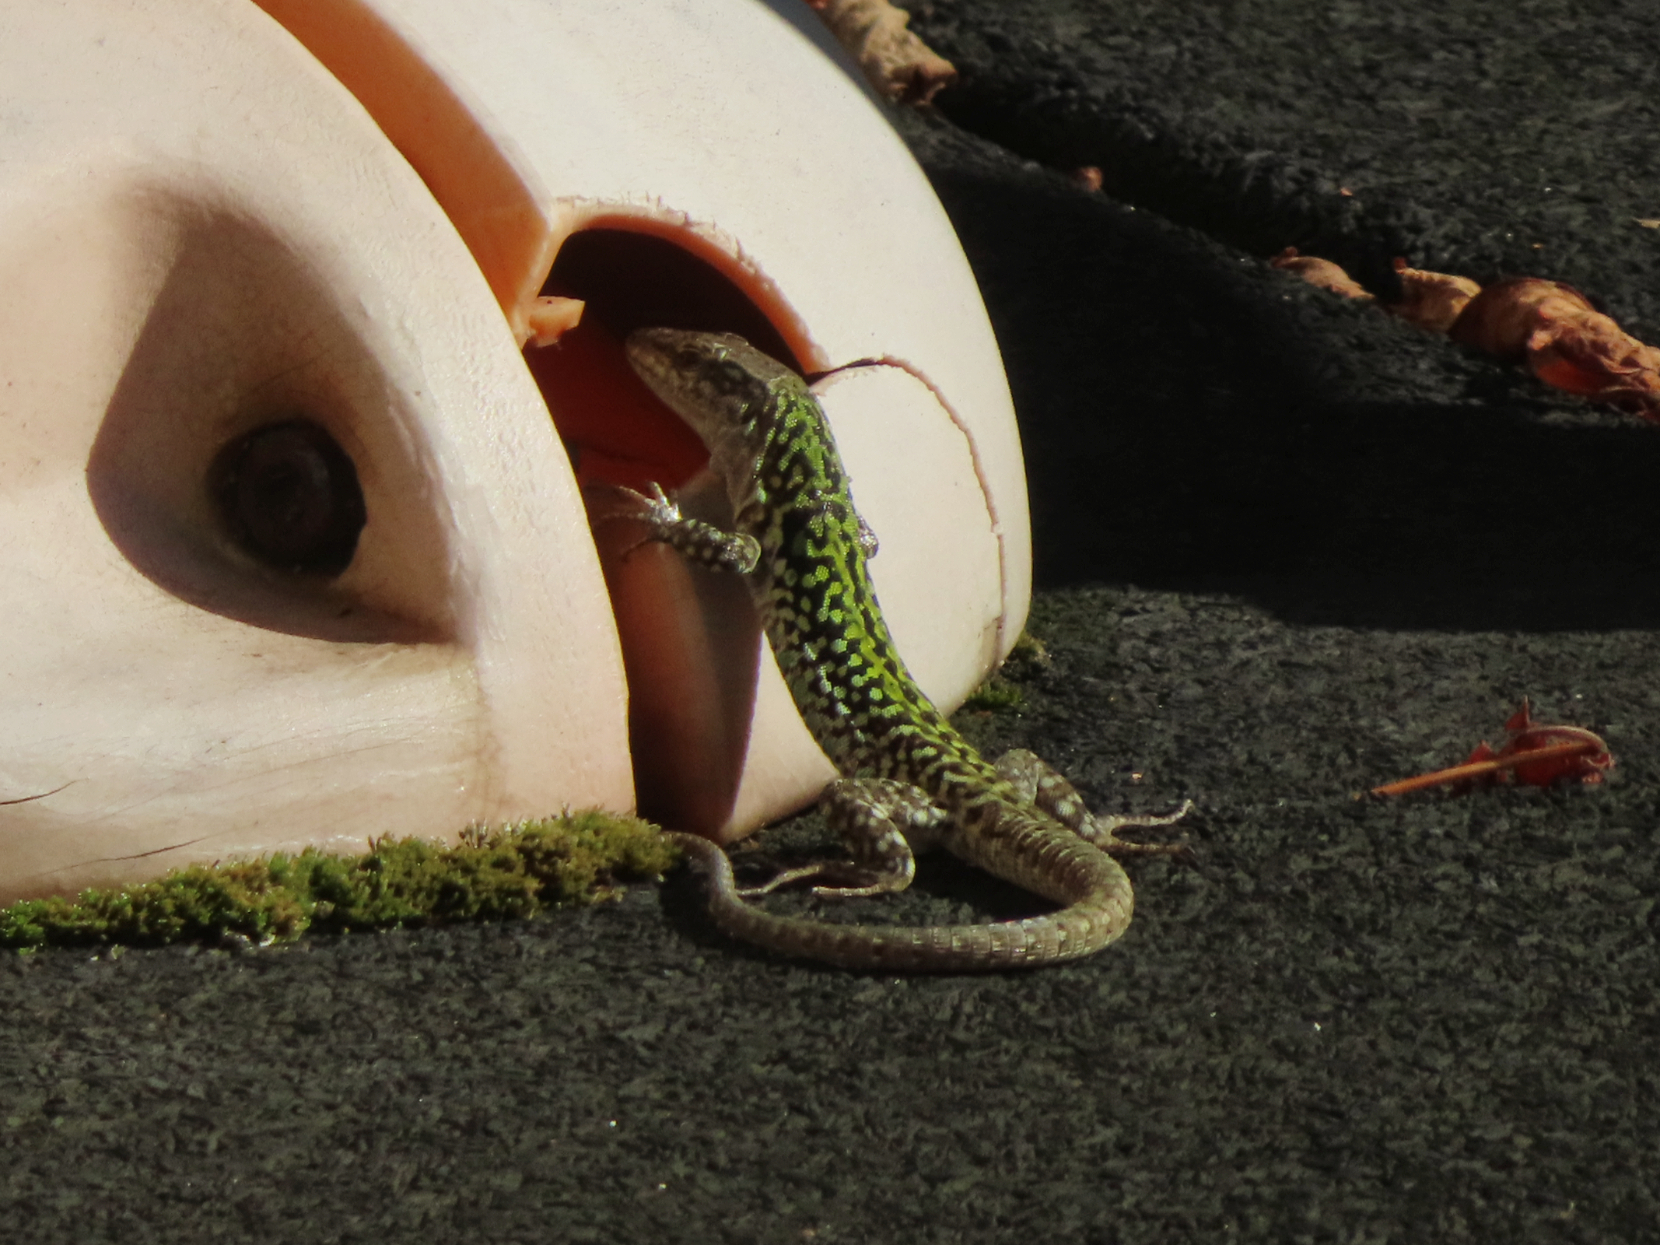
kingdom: Animalia
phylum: Chordata
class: Squamata
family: Lacertidae
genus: Podarcis
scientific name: Podarcis siculus
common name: Italian wall lizard
